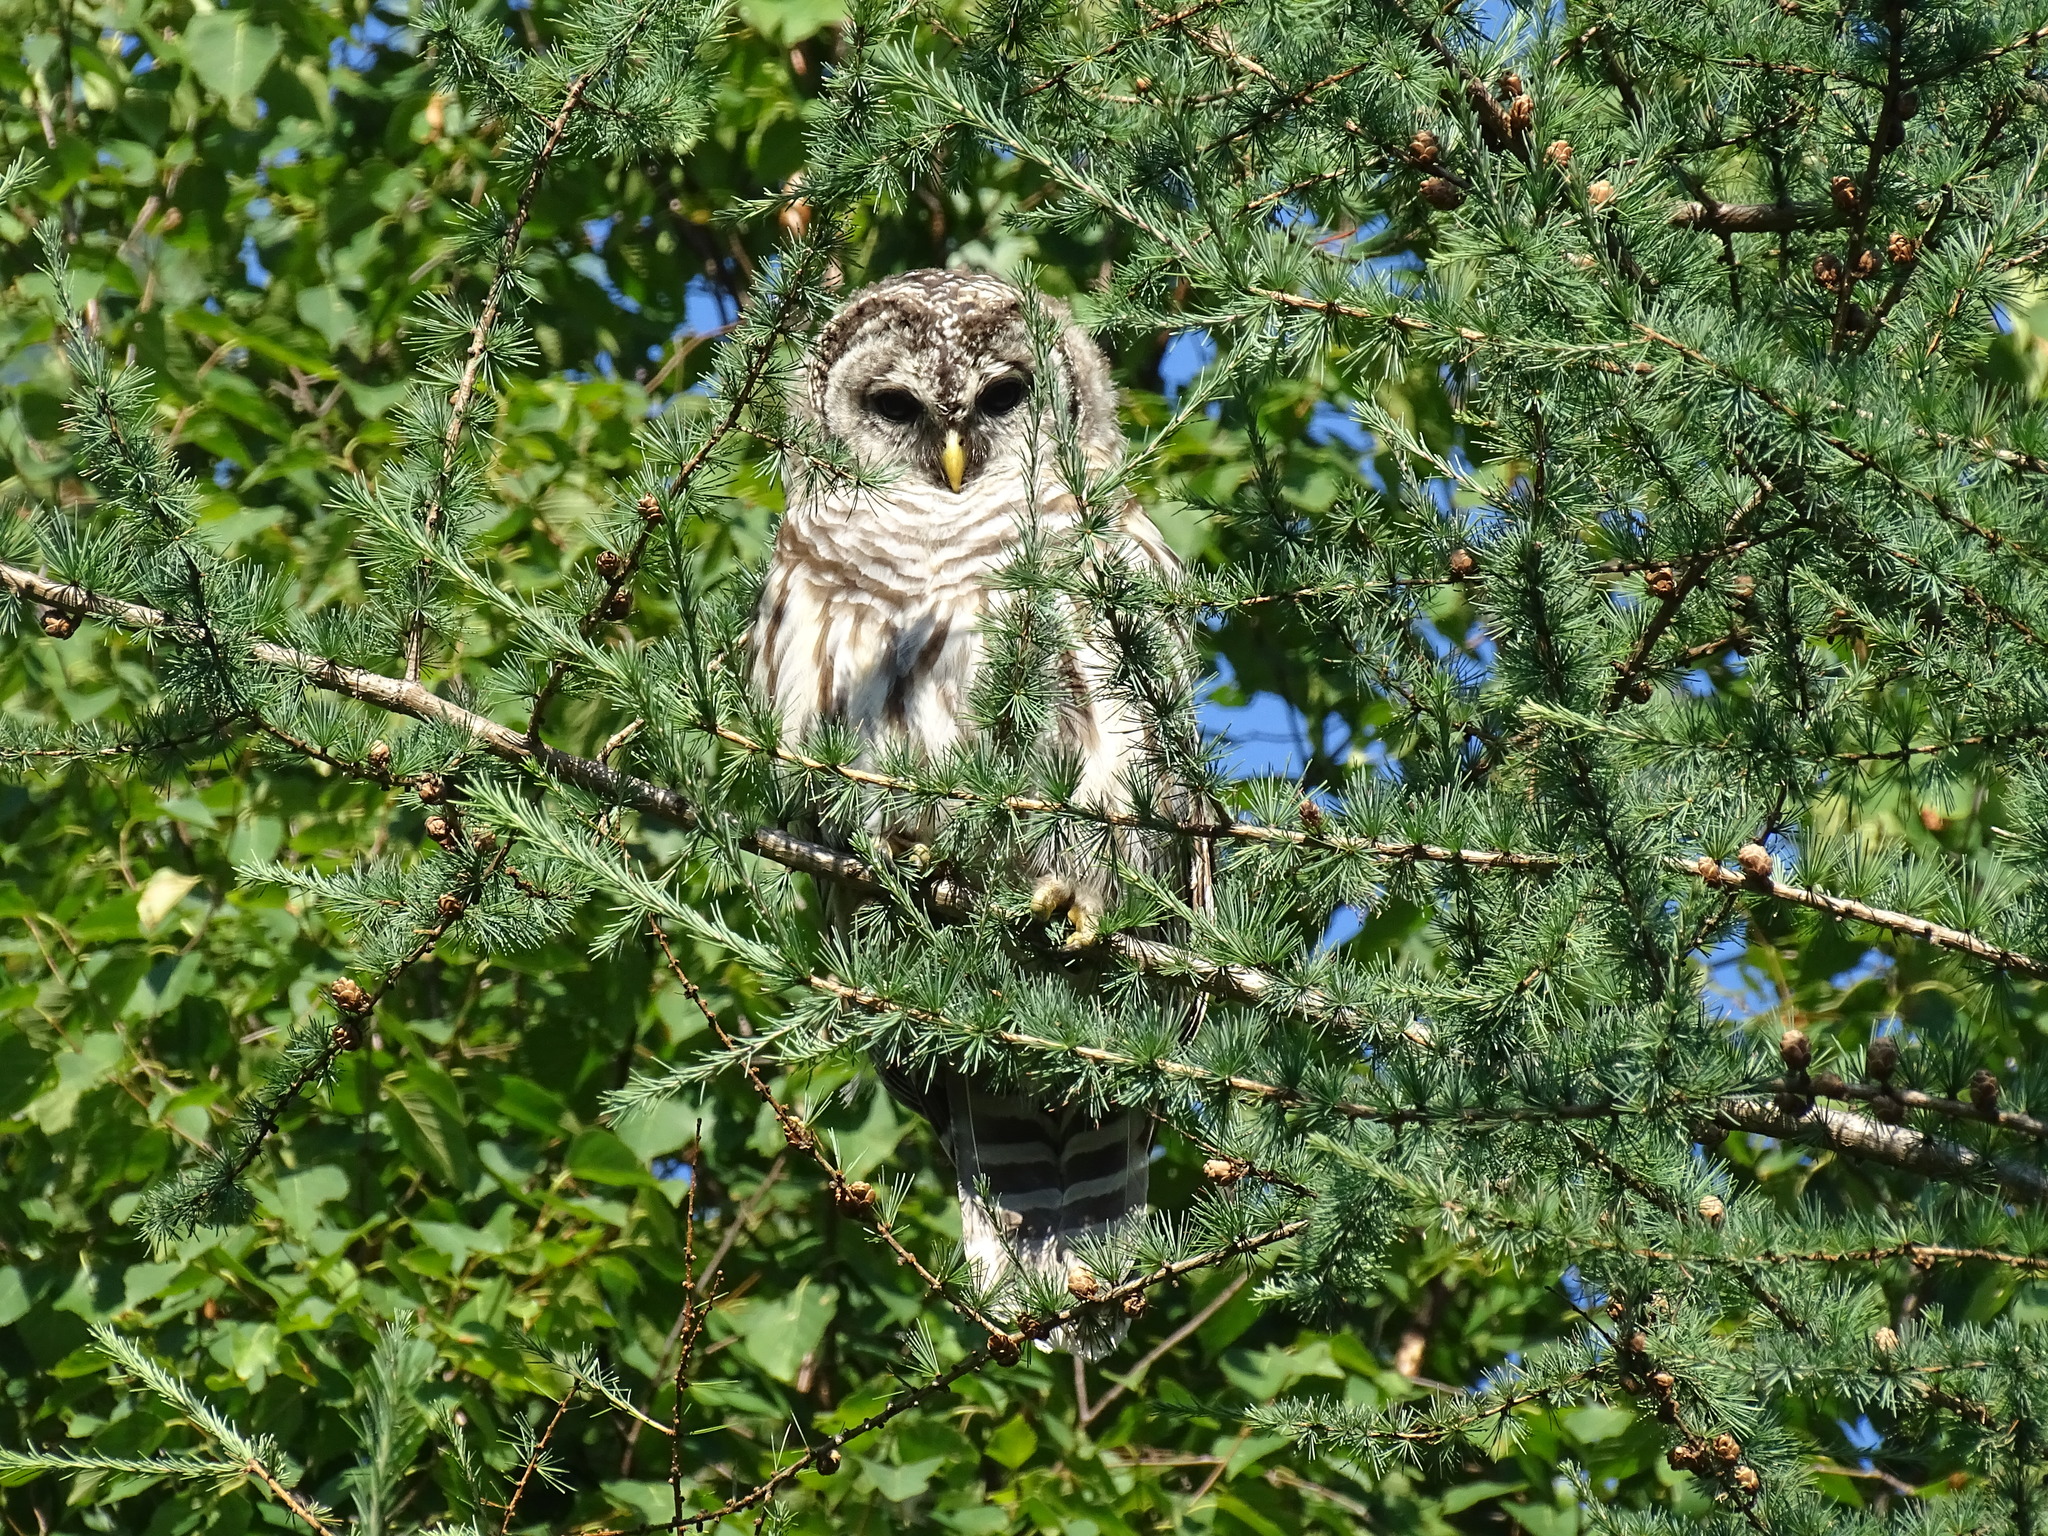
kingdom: Animalia
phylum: Chordata
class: Aves
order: Strigiformes
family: Strigidae
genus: Strix
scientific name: Strix varia
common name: Barred owl
